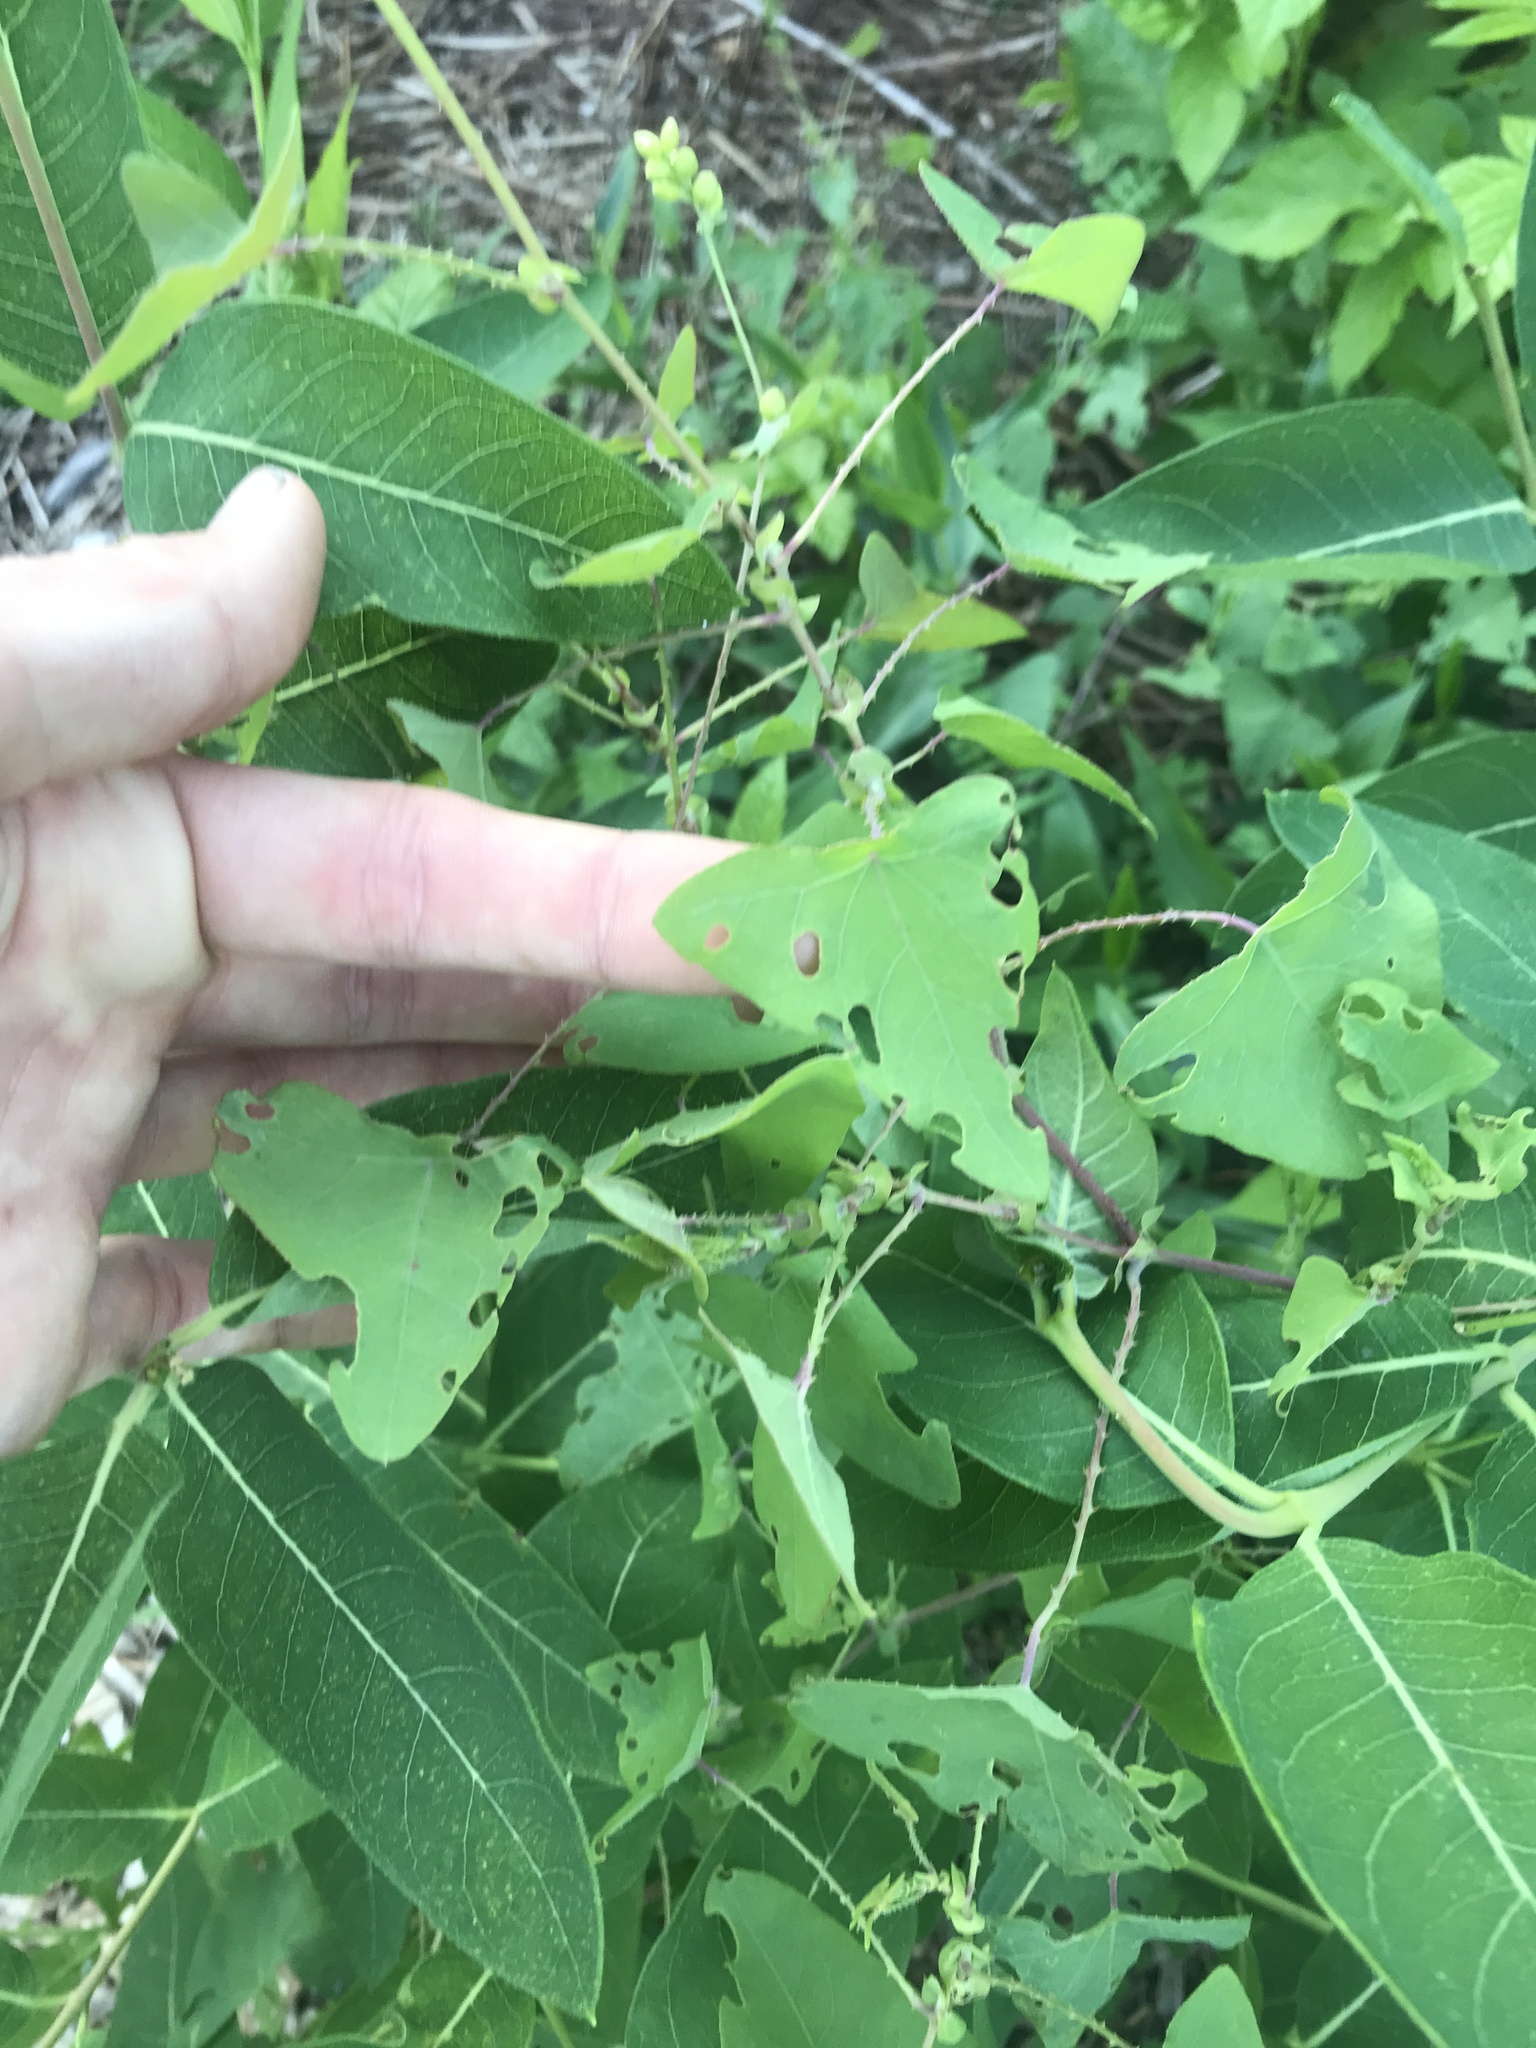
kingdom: Plantae
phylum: Tracheophyta
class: Magnoliopsida
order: Caryophyllales
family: Polygonaceae
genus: Persicaria
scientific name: Persicaria perfoliata
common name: Asiatic tearthumb
